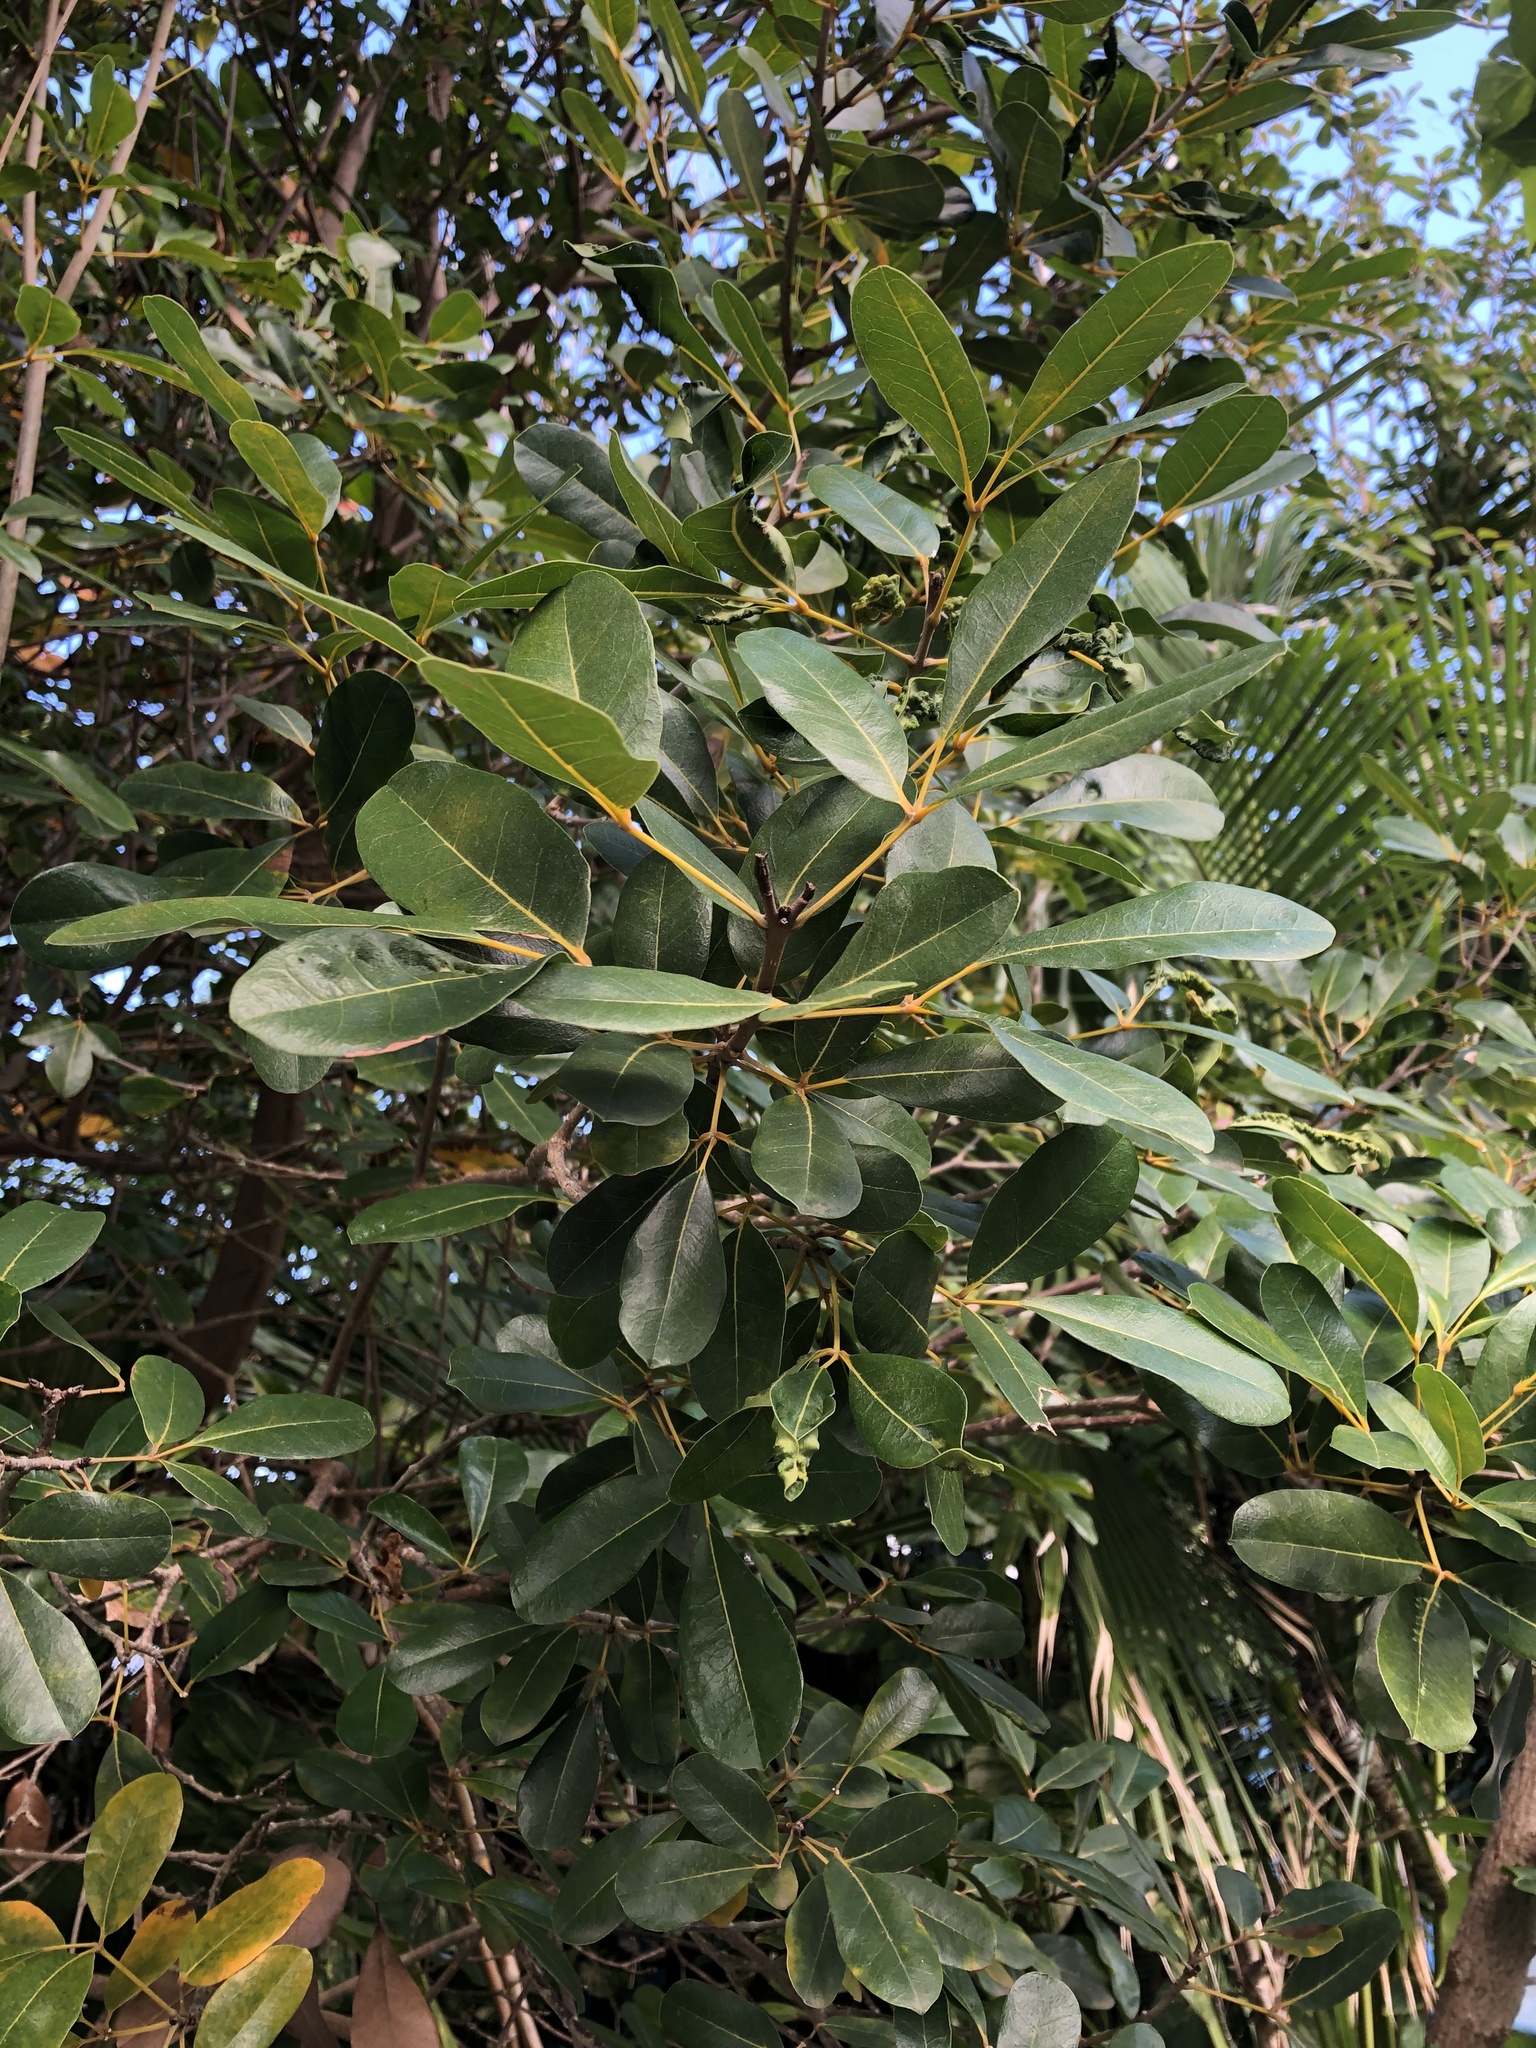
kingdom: Plantae
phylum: Tracheophyta
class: Magnoliopsida
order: Lamiales
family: Bignoniaceae
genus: Tabebuia
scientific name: Tabebuia heterophylla
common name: White cedar
